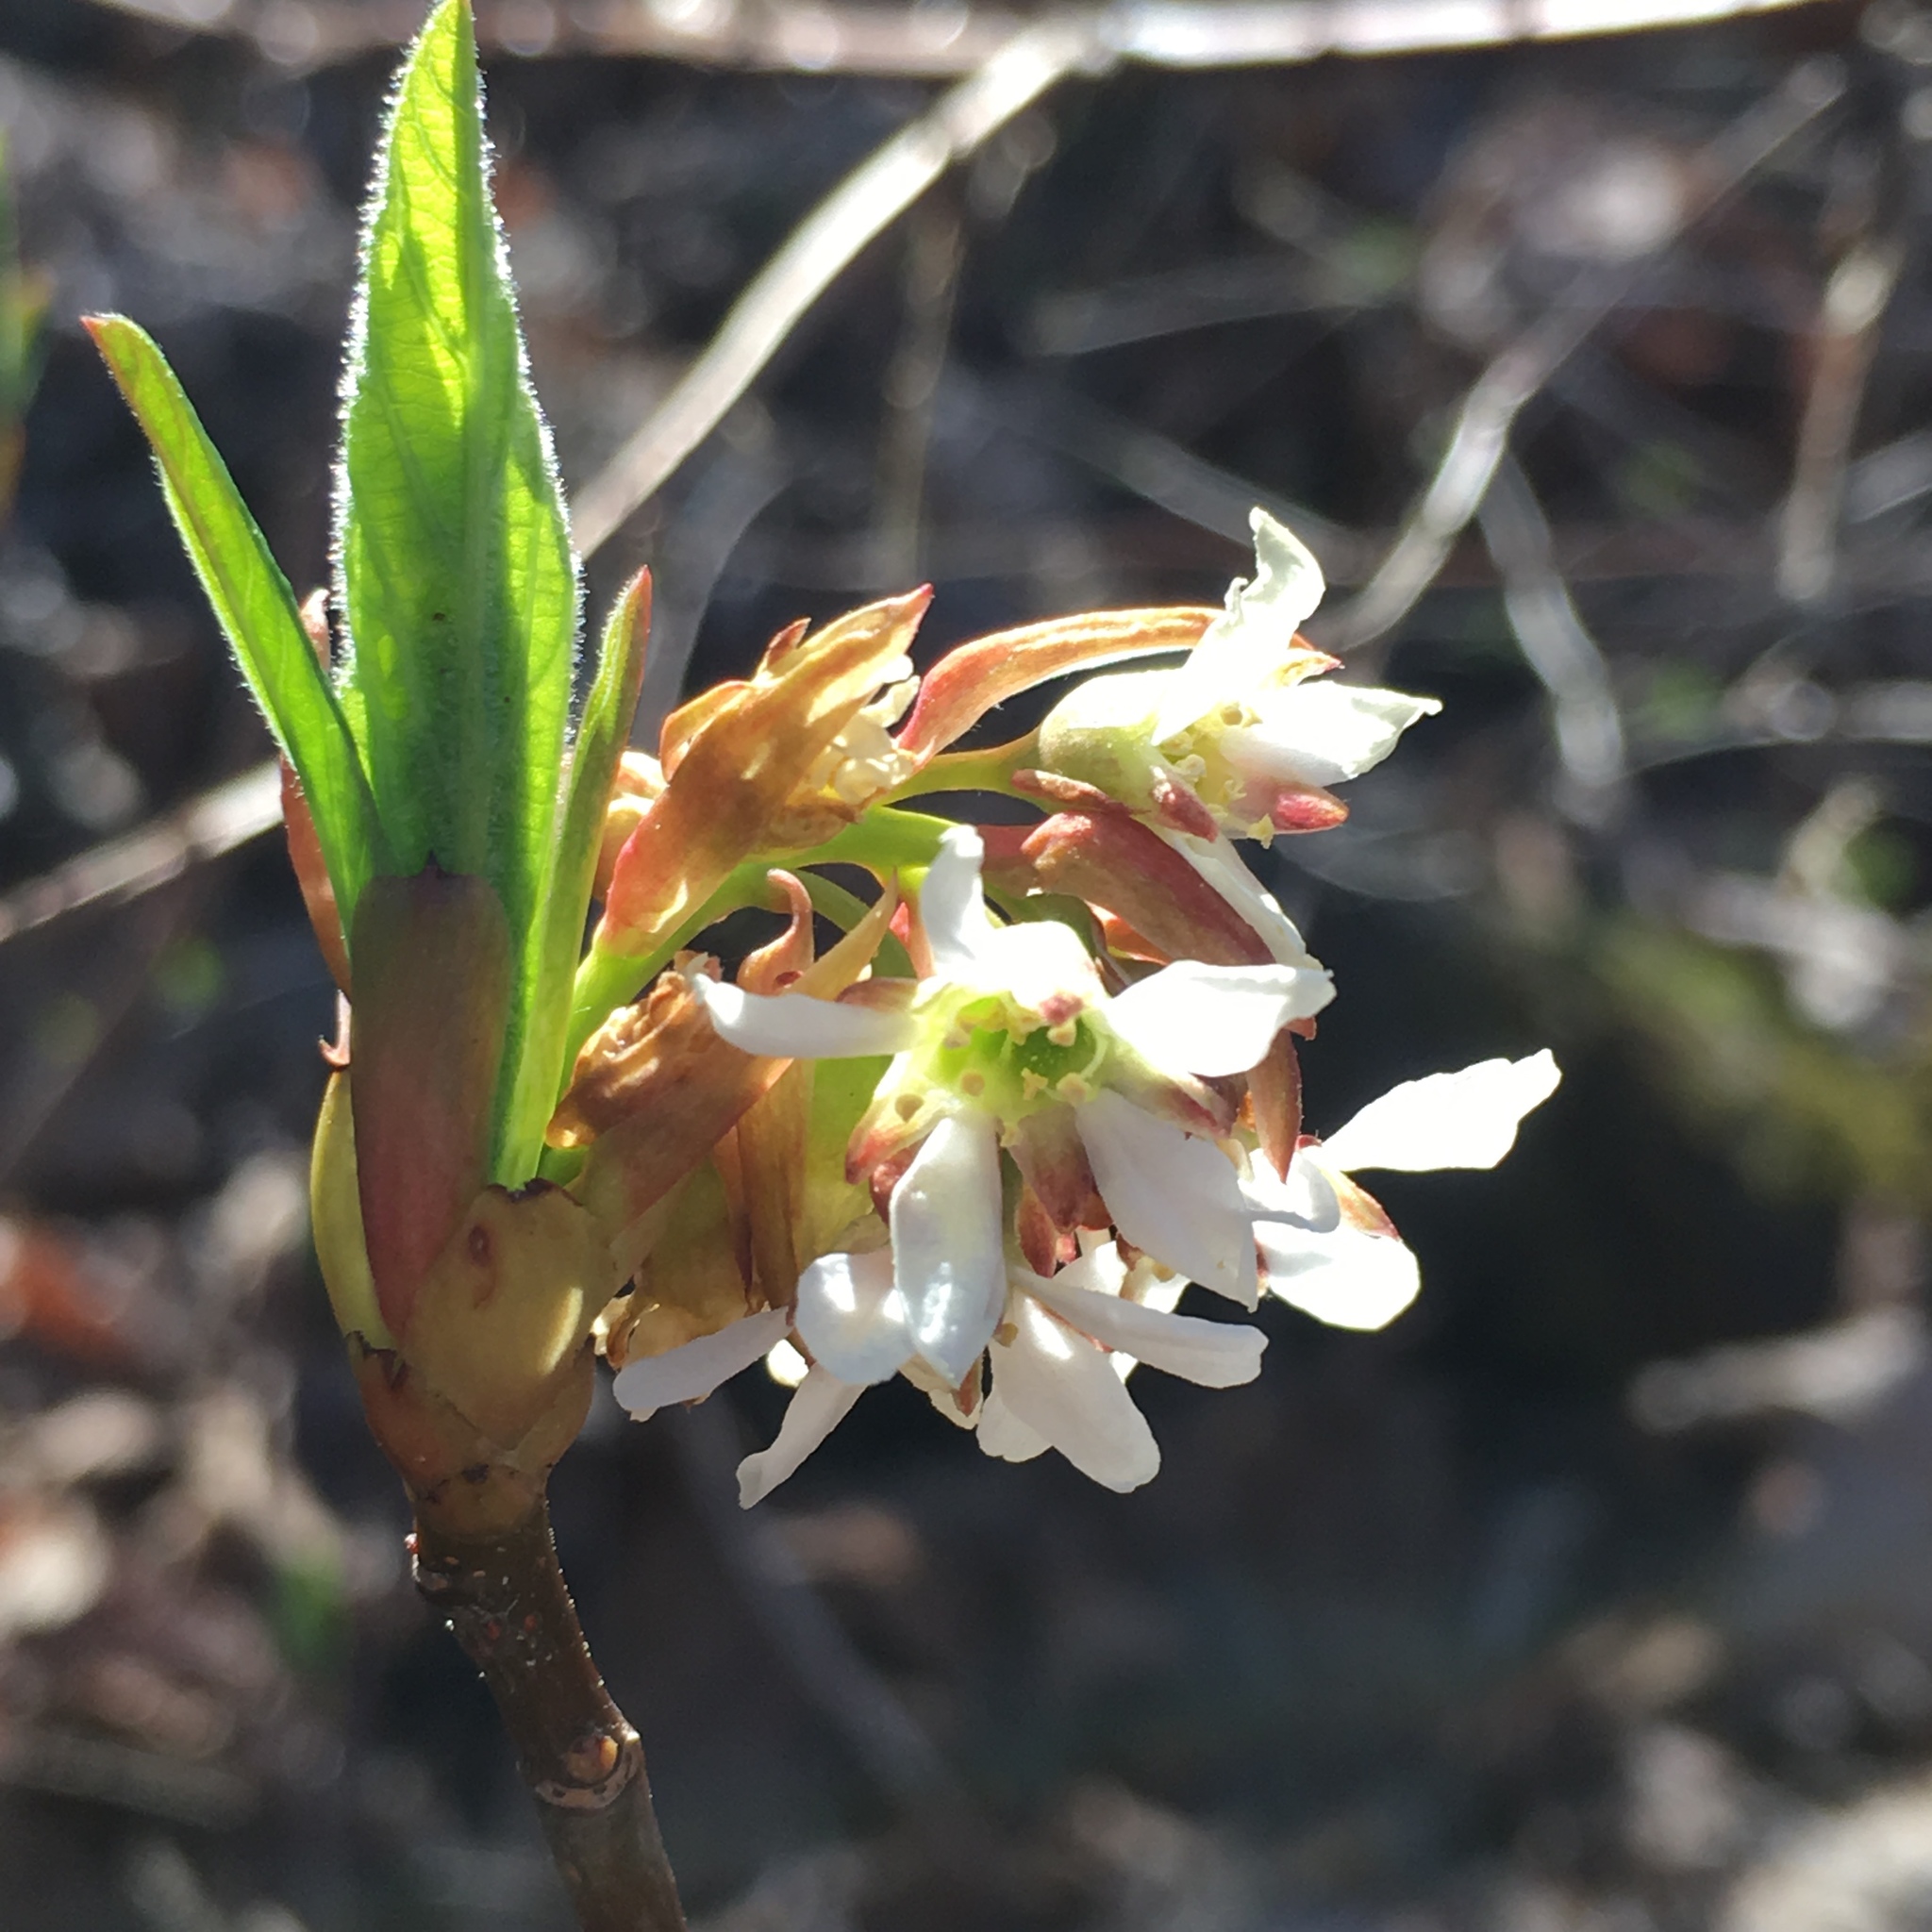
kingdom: Plantae
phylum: Tracheophyta
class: Magnoliopsida
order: Rosales
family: Rosaceae
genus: Oemleria
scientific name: Oemleria cerasiformis
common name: Osoberry
